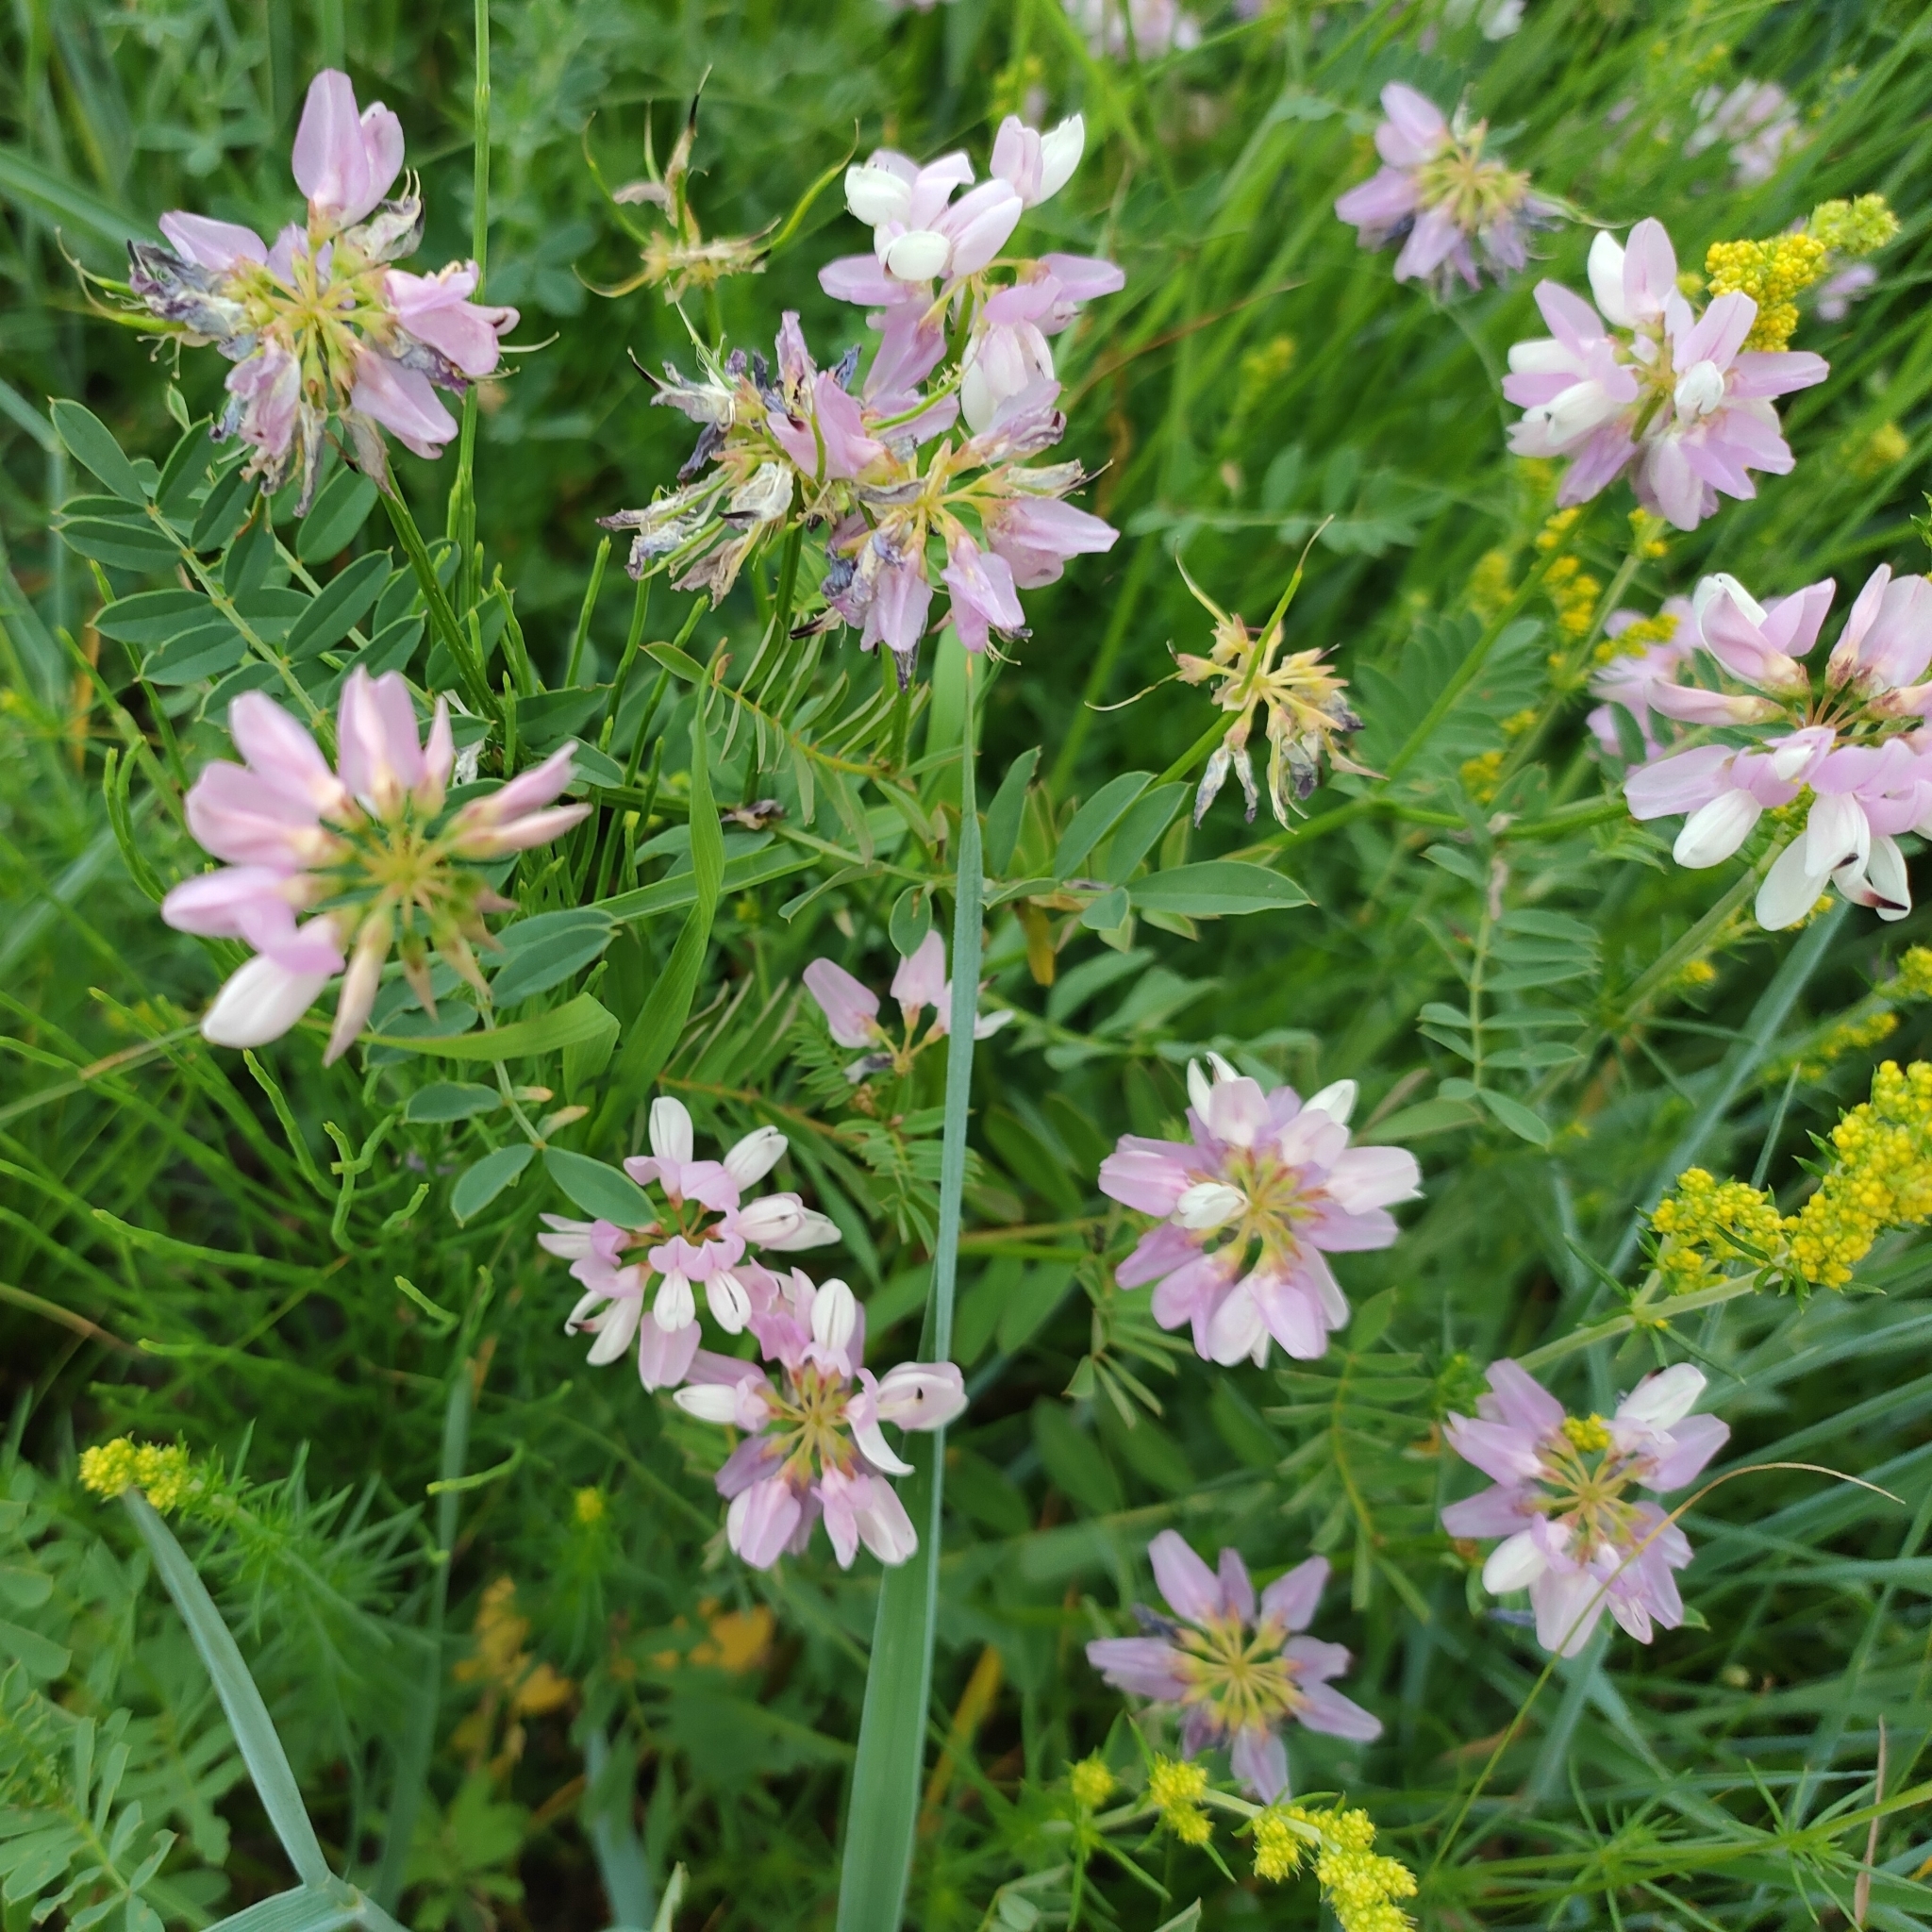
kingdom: Plantae
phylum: Tracheophyta
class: Magnoliopsida
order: Fabales
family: Fabaceae
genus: Coronilla
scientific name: Coronilla varia
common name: Crownvetch
